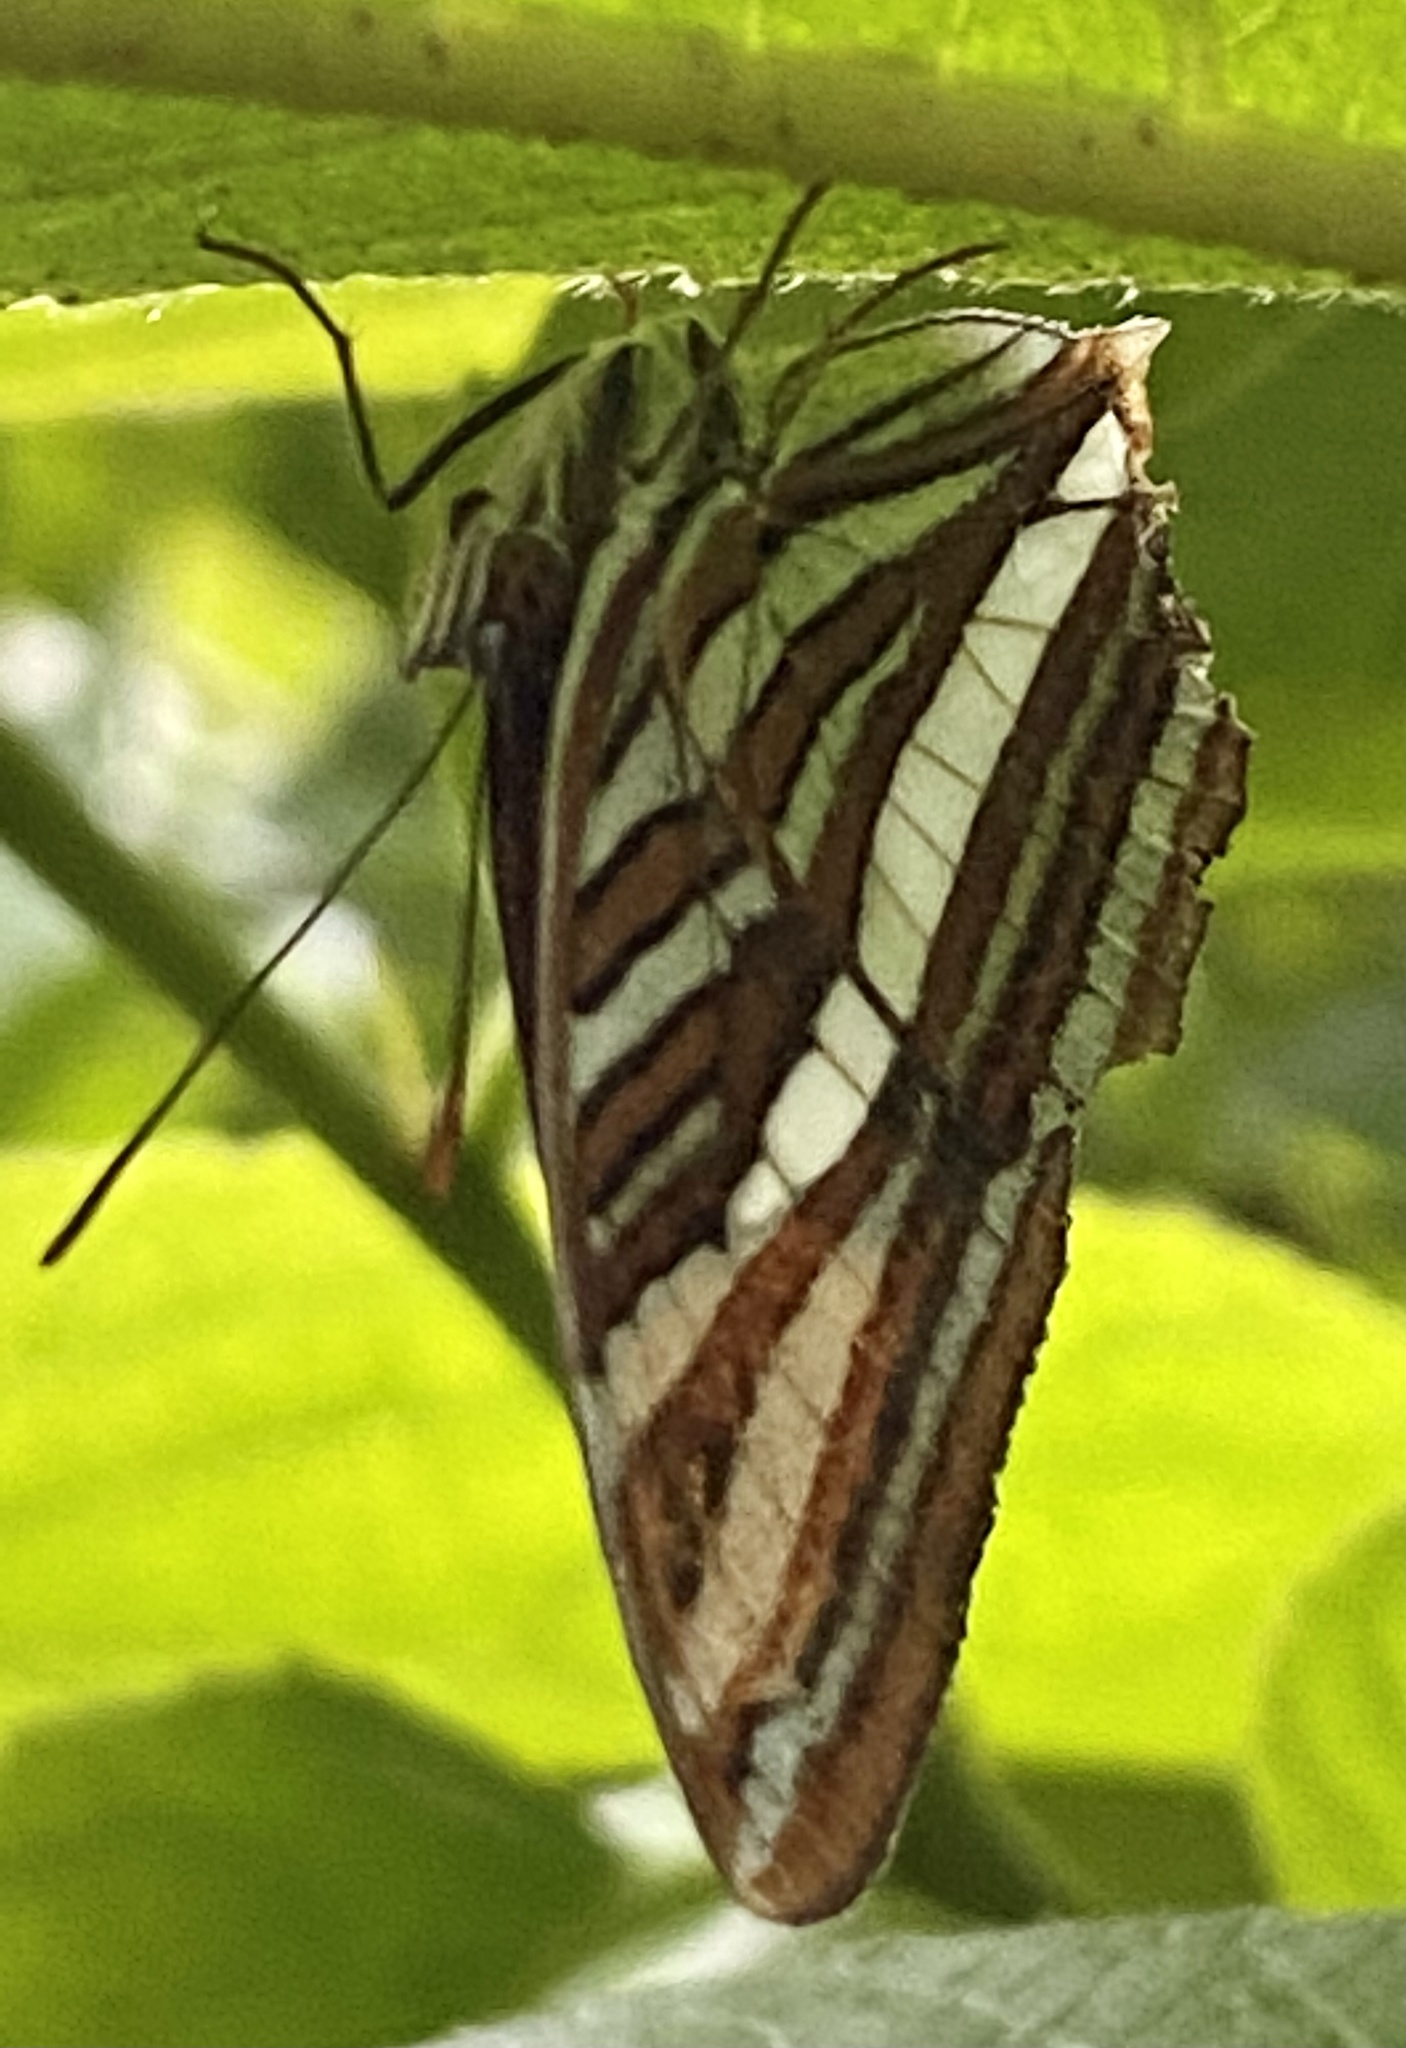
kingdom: Animalia
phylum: Arthropoda
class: Insecta
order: Lepidoptera
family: Nymphalidae
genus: Limenitis
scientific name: Limenitis syma
